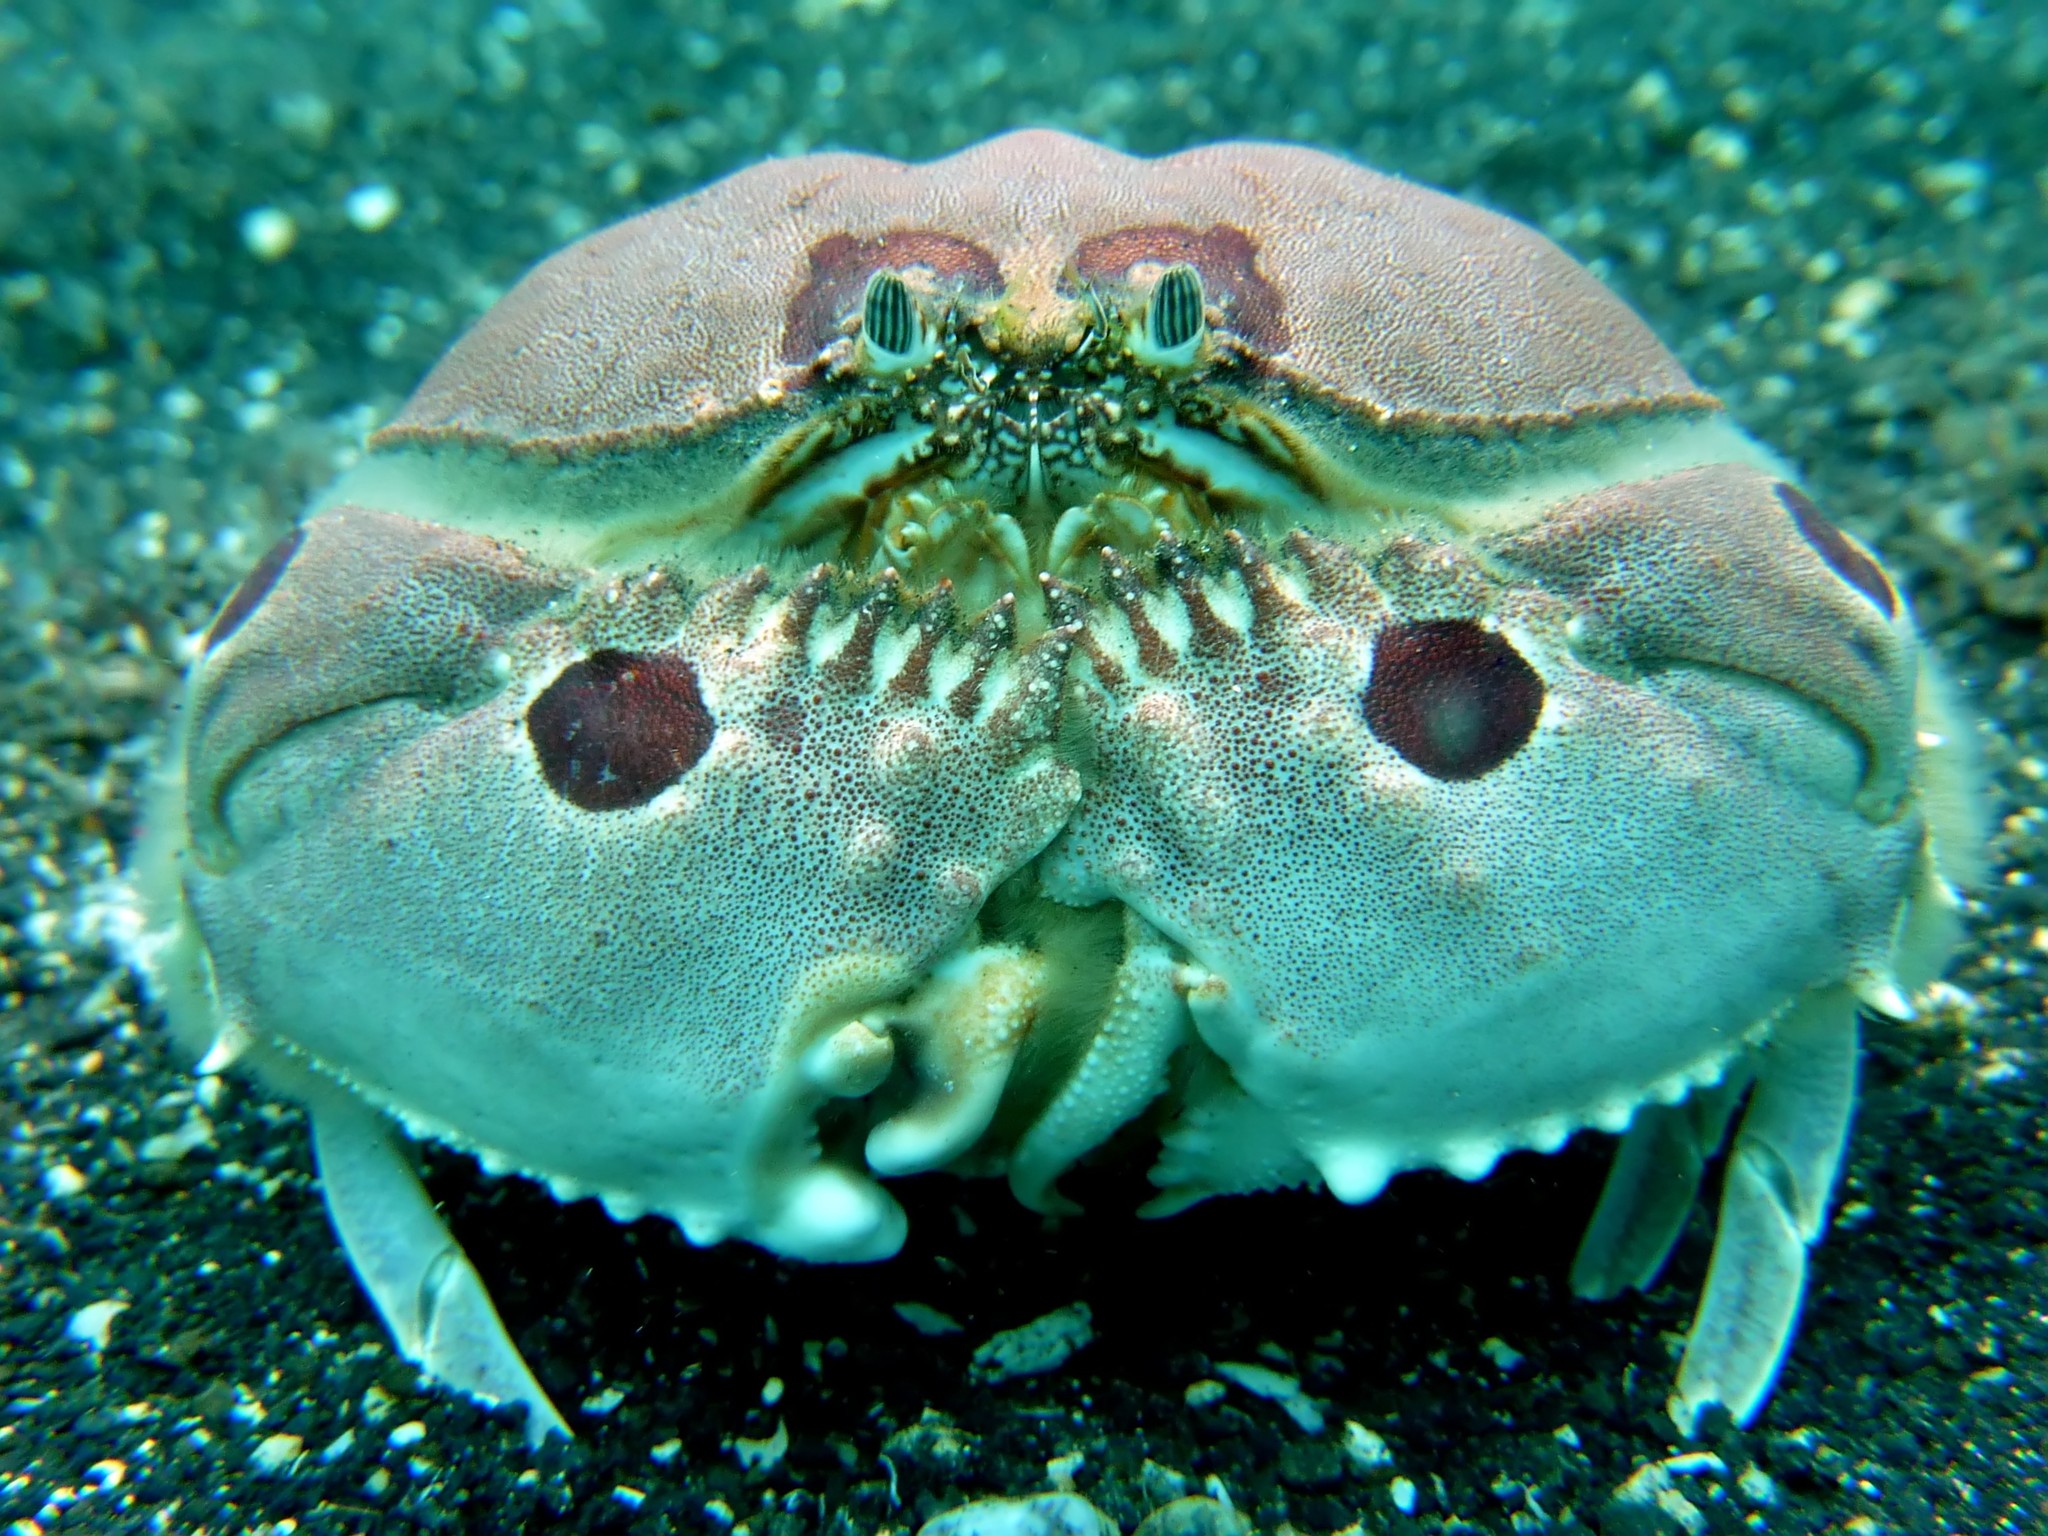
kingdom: Animalia
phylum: Arthropoda
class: Malacostraca
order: Decapoda
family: Calappidae
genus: Calappa
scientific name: Calappa philargius
